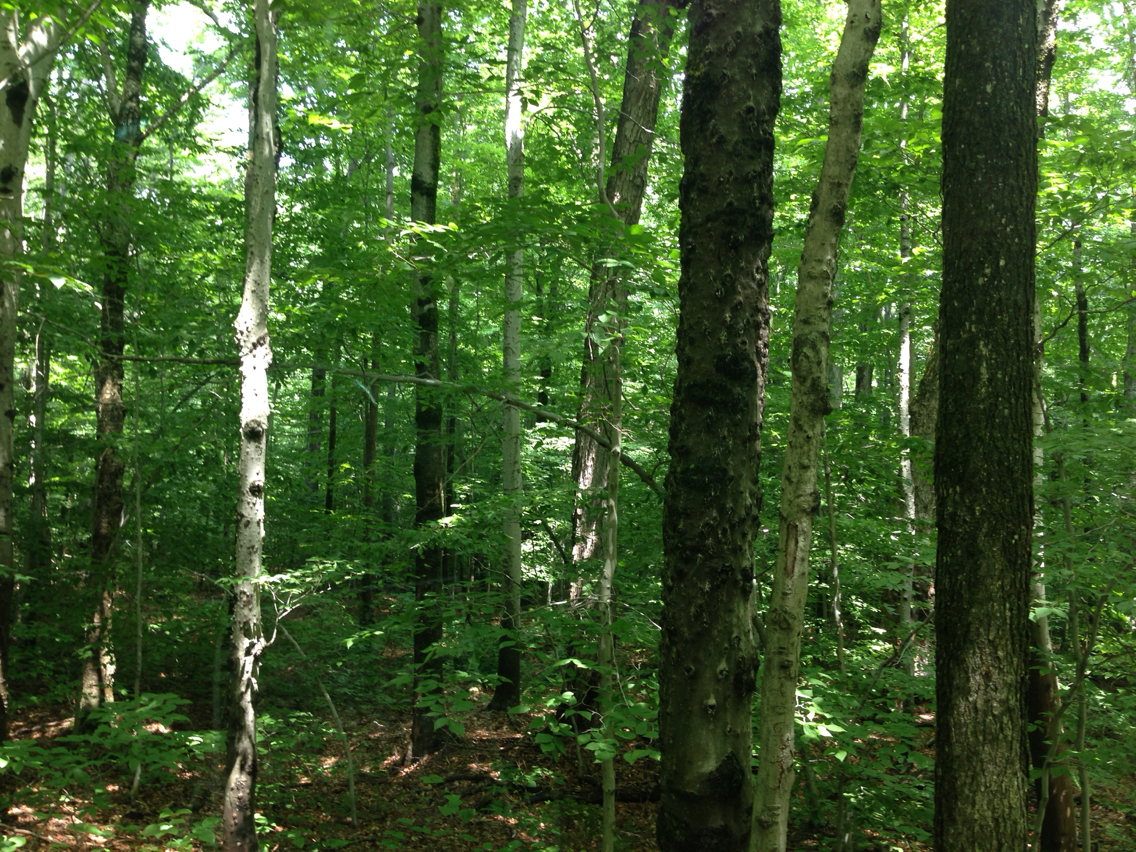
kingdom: Plantae
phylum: Tracheophyta
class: Magnoliopsida
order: Fagales
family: Fagaceae
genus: Fagus
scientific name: Fagus grandifolia
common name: American beech
